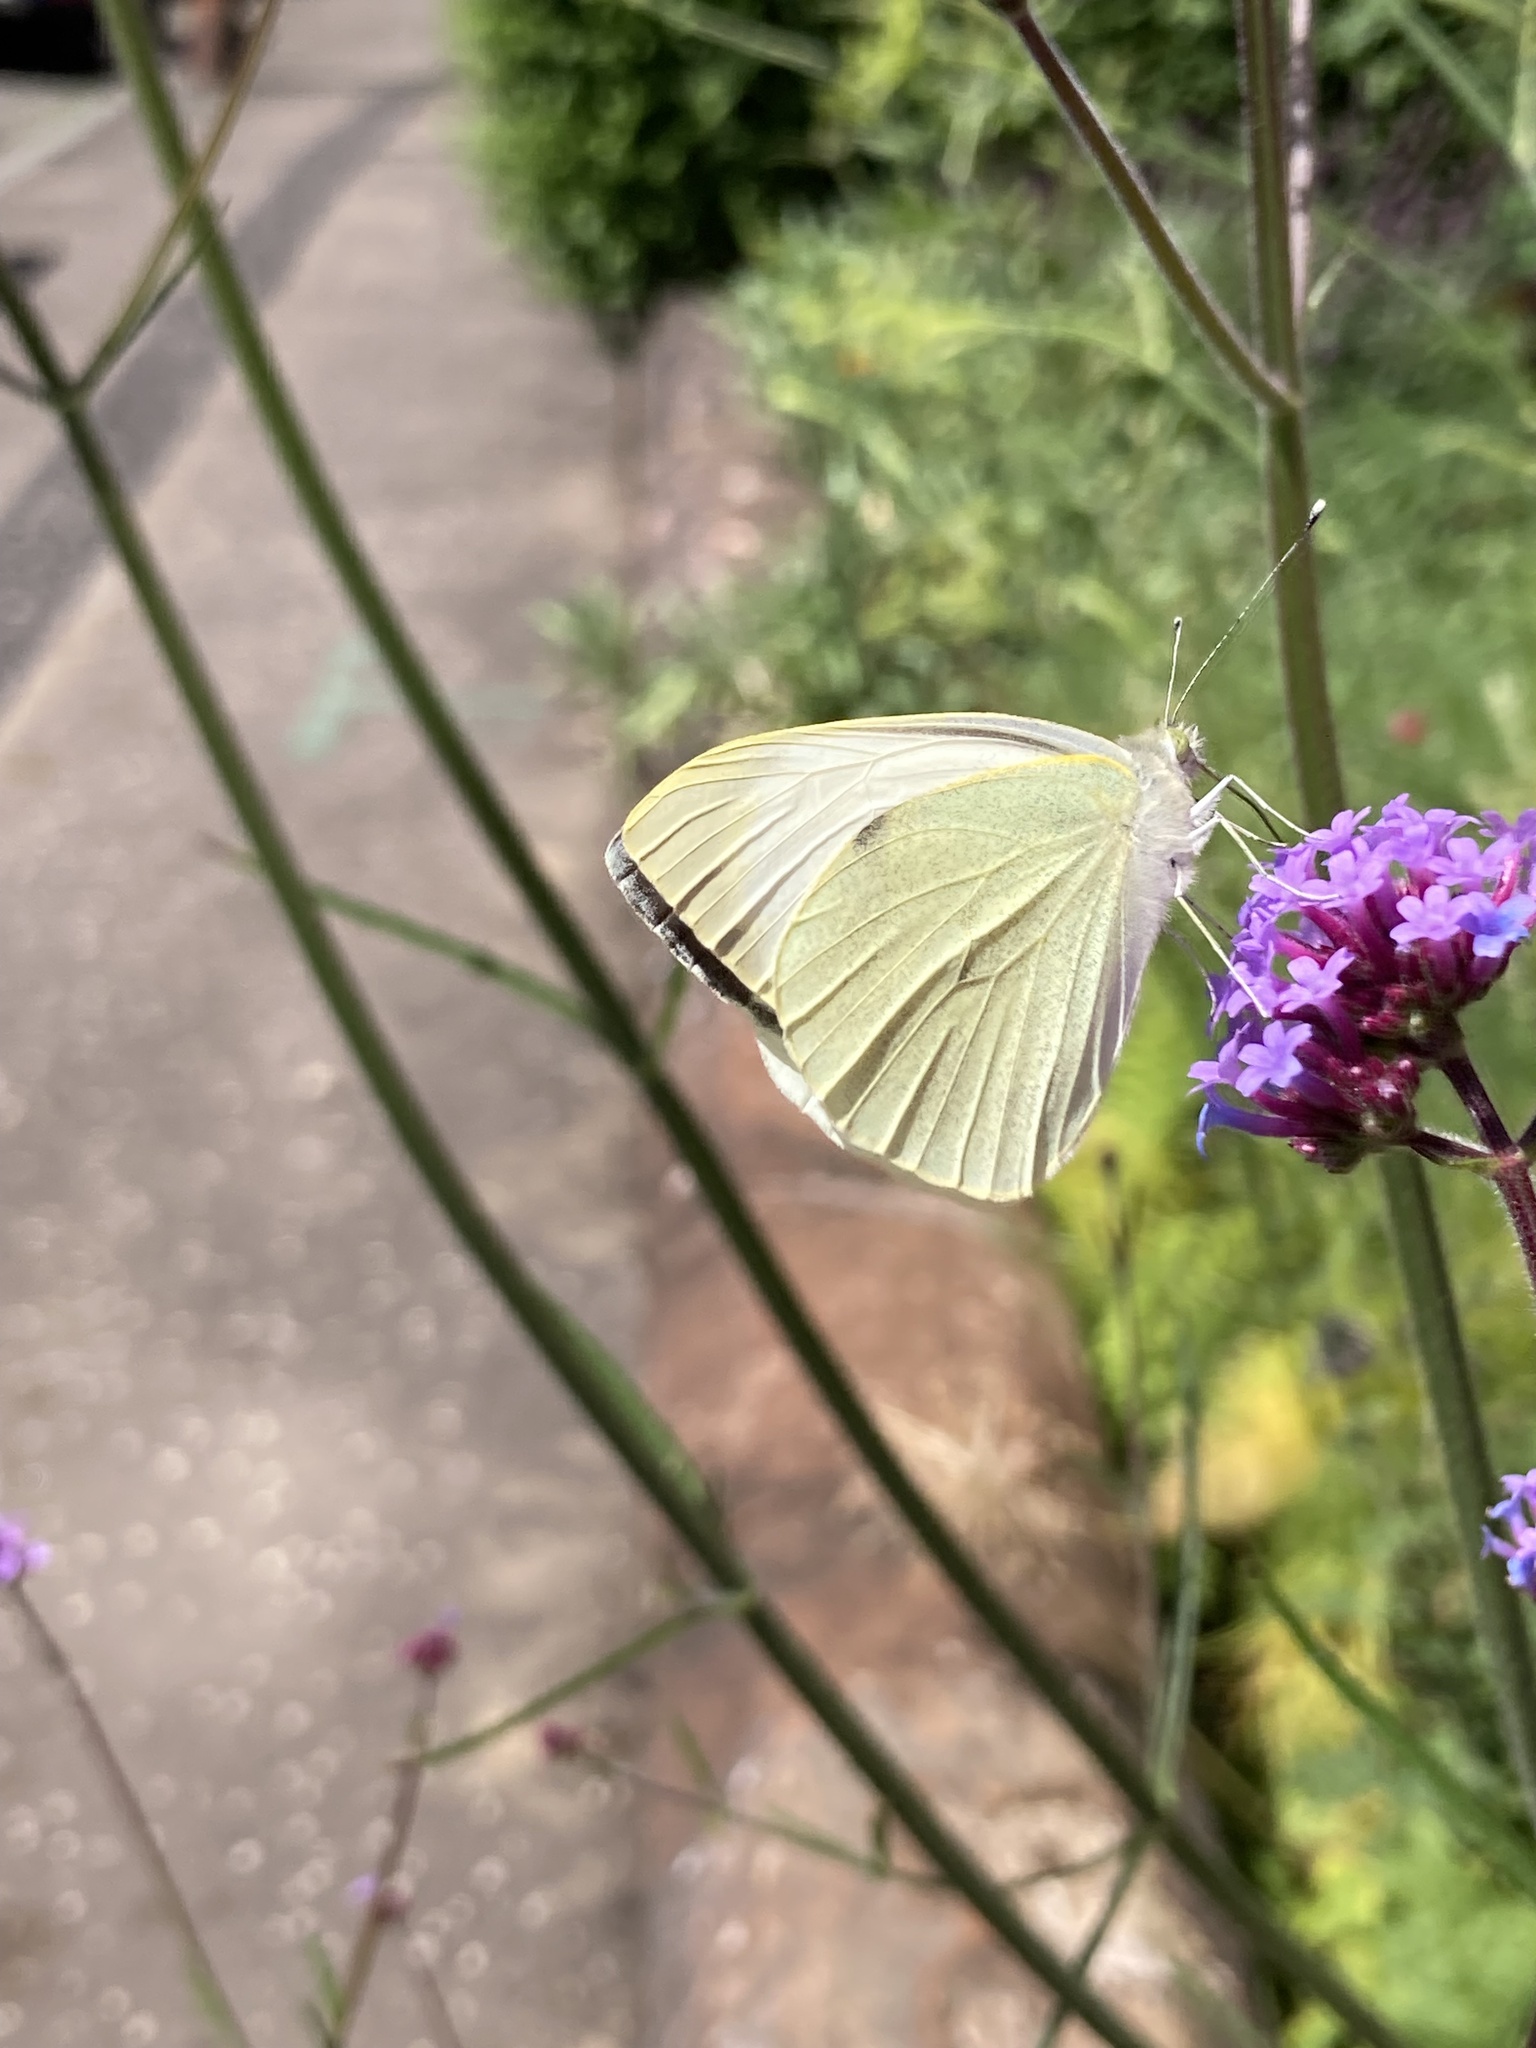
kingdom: Animalia
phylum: Arthropoda
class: Insecta
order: Lepidoptera
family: Pieridae
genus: Pieris
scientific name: Pieris brassicae
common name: Large white
